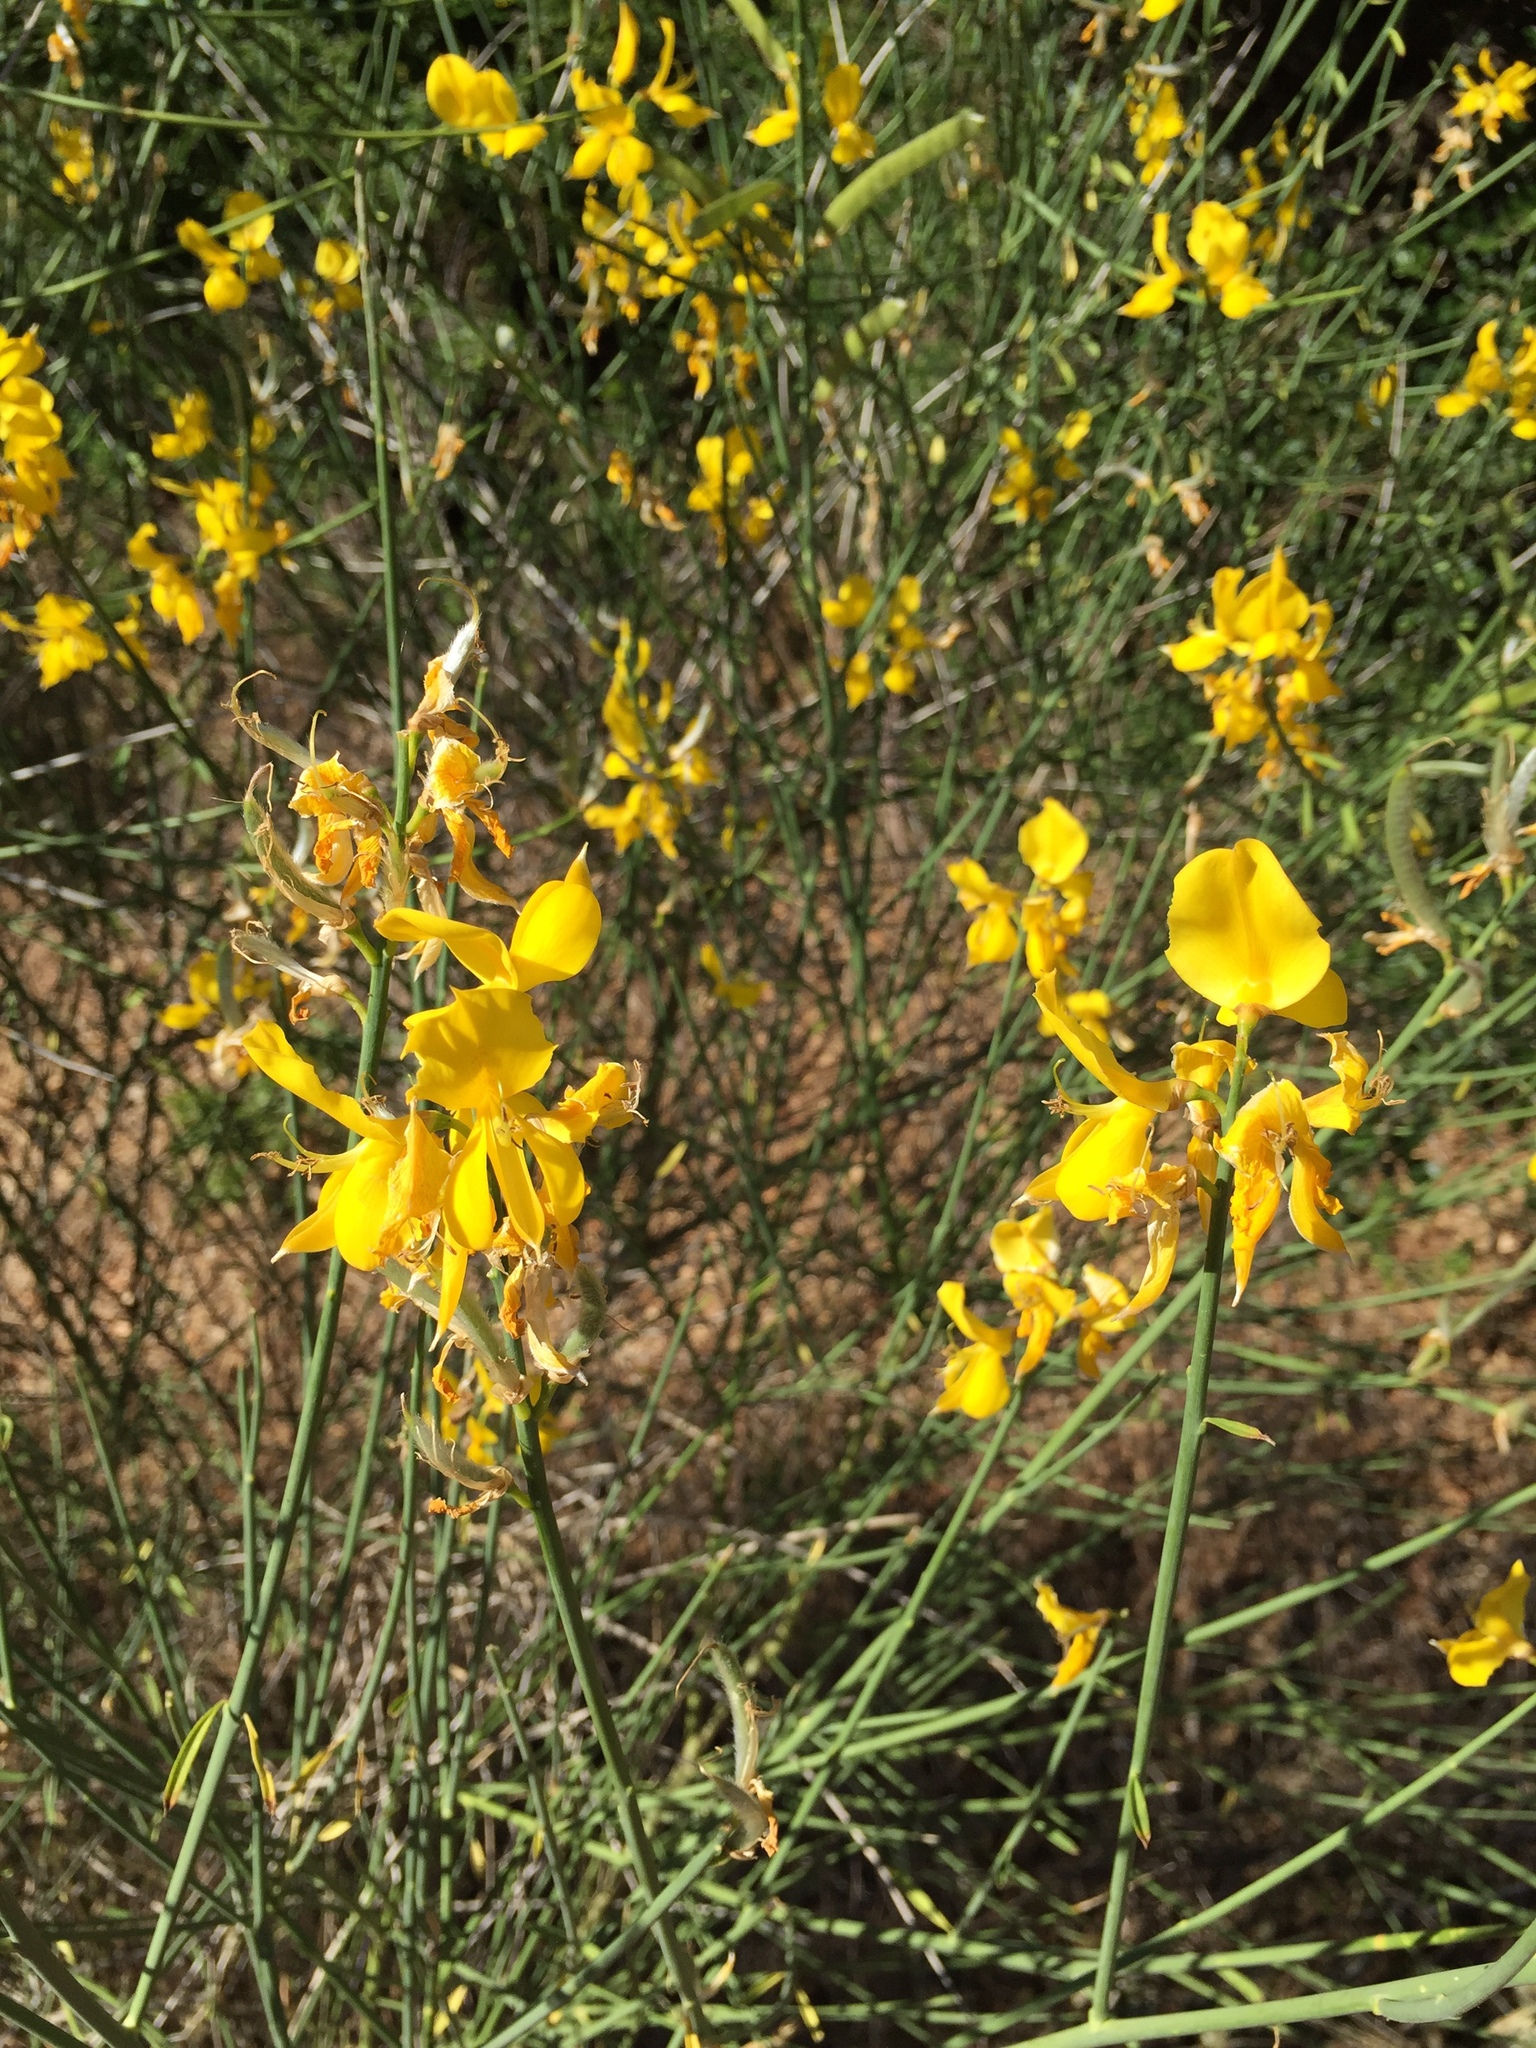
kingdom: Plantae
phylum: Tracheophyta
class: Magnoliopsida
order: Fabales
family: Fabaceae
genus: Spartium
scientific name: Spartium junceum
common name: Spanish broom
